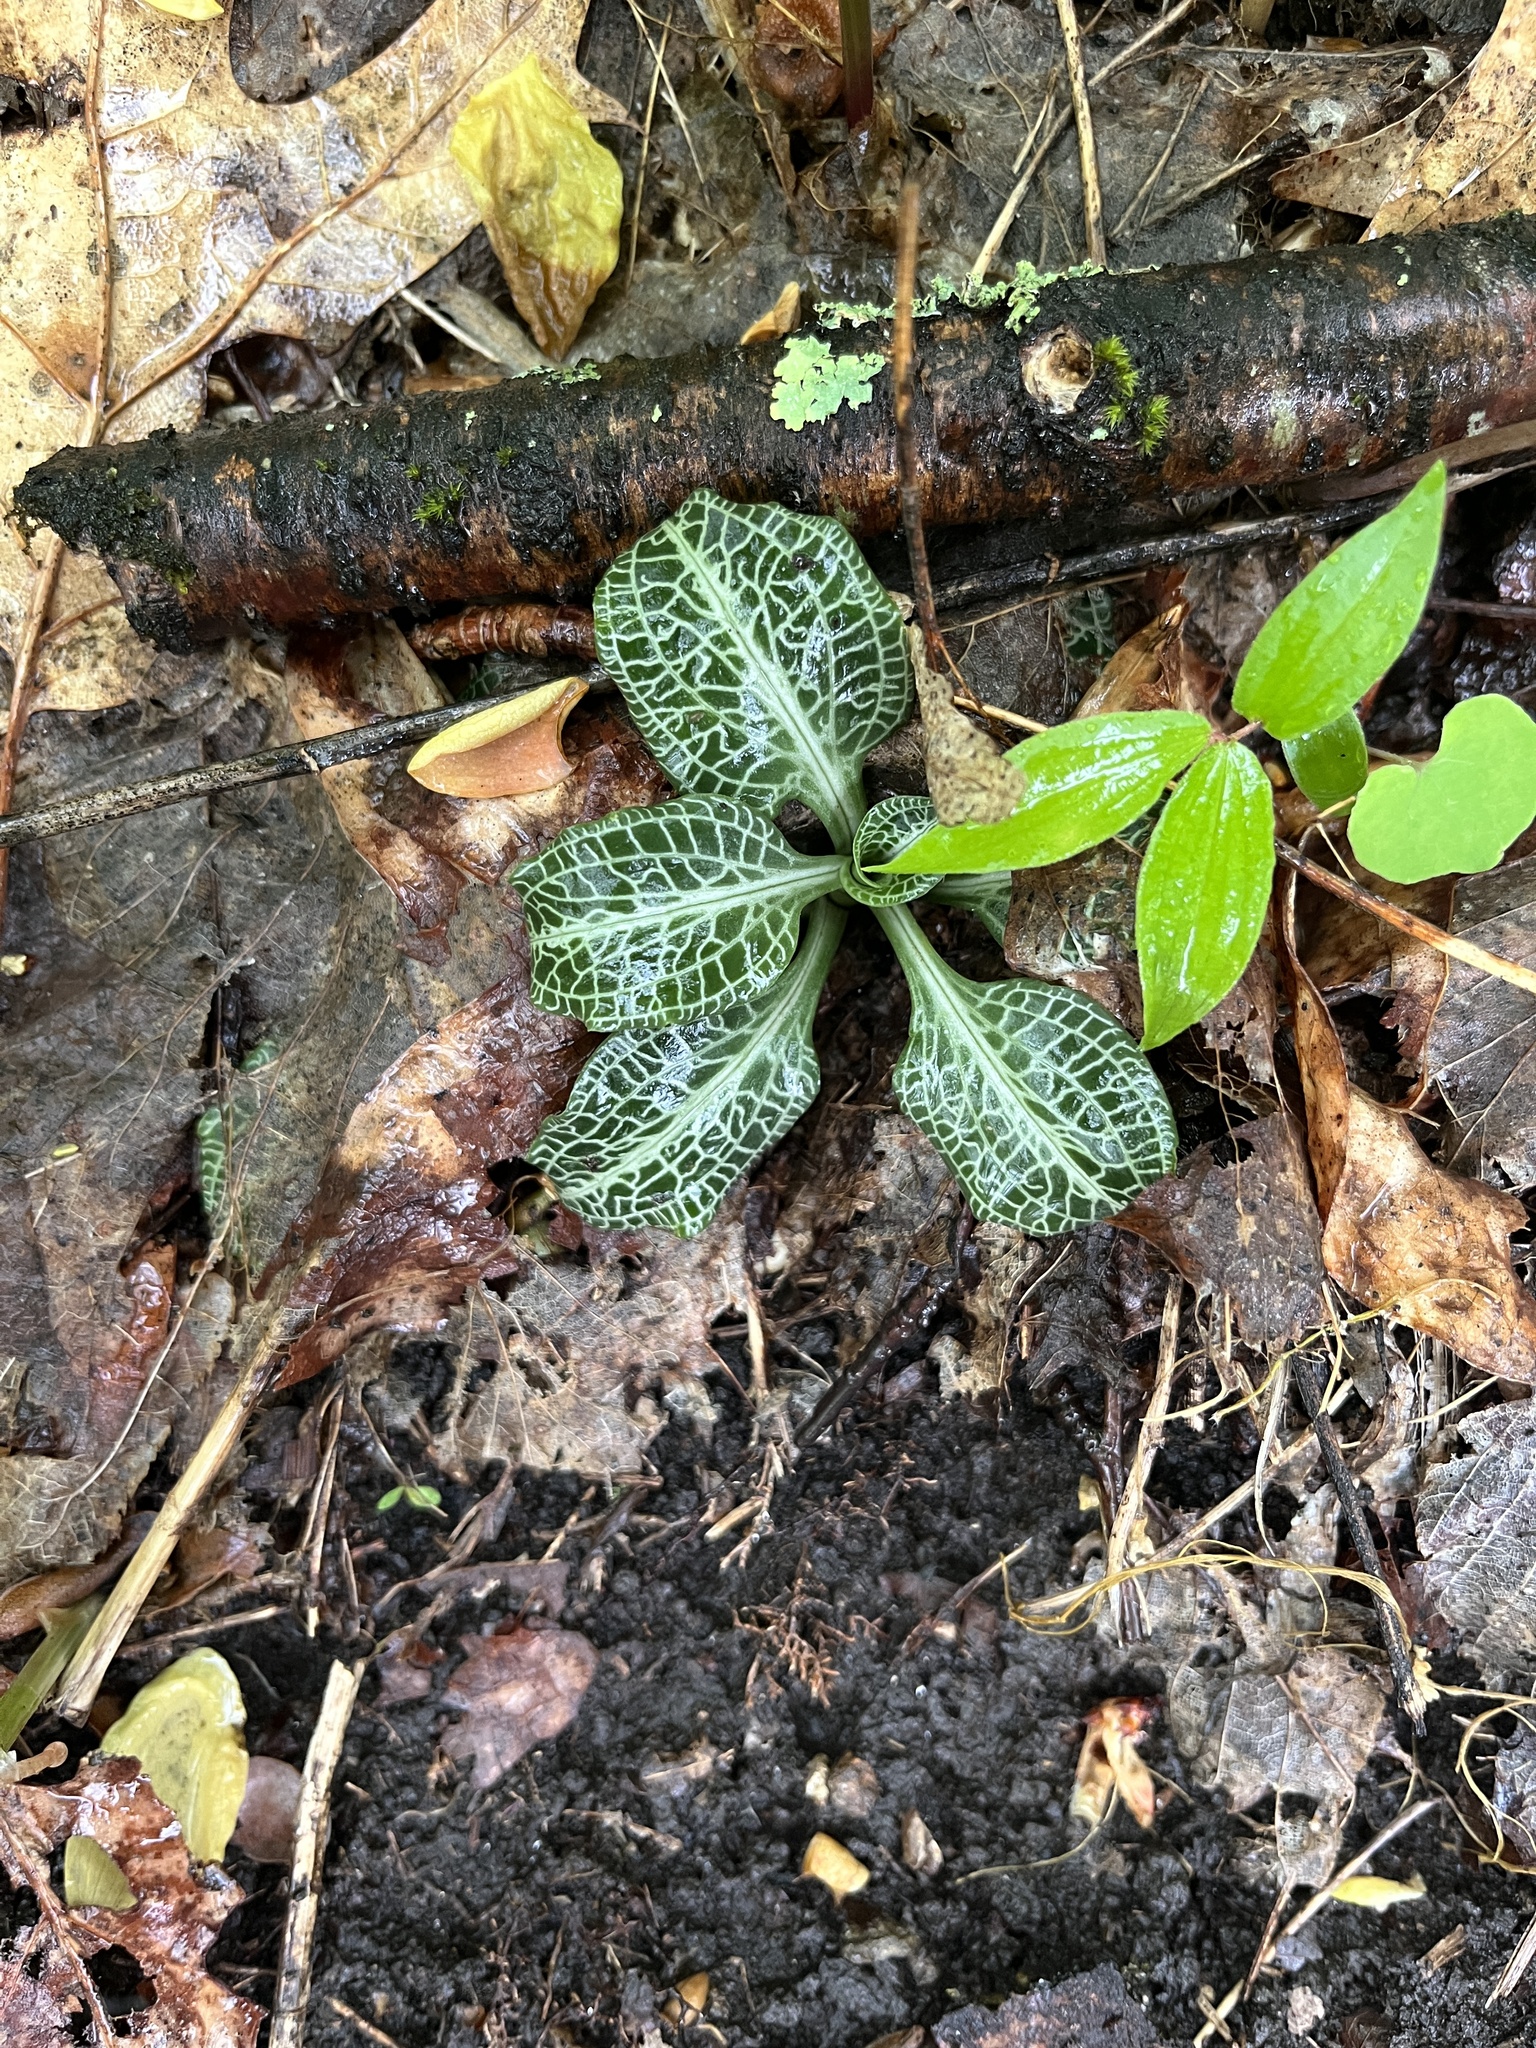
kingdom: Plantae
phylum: Tracheophyta
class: Liliopsida
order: Asparagales
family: Orchidaceae
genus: Goodyera
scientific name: Goodyera pubescens
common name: Downy rattlesnake-plantain
